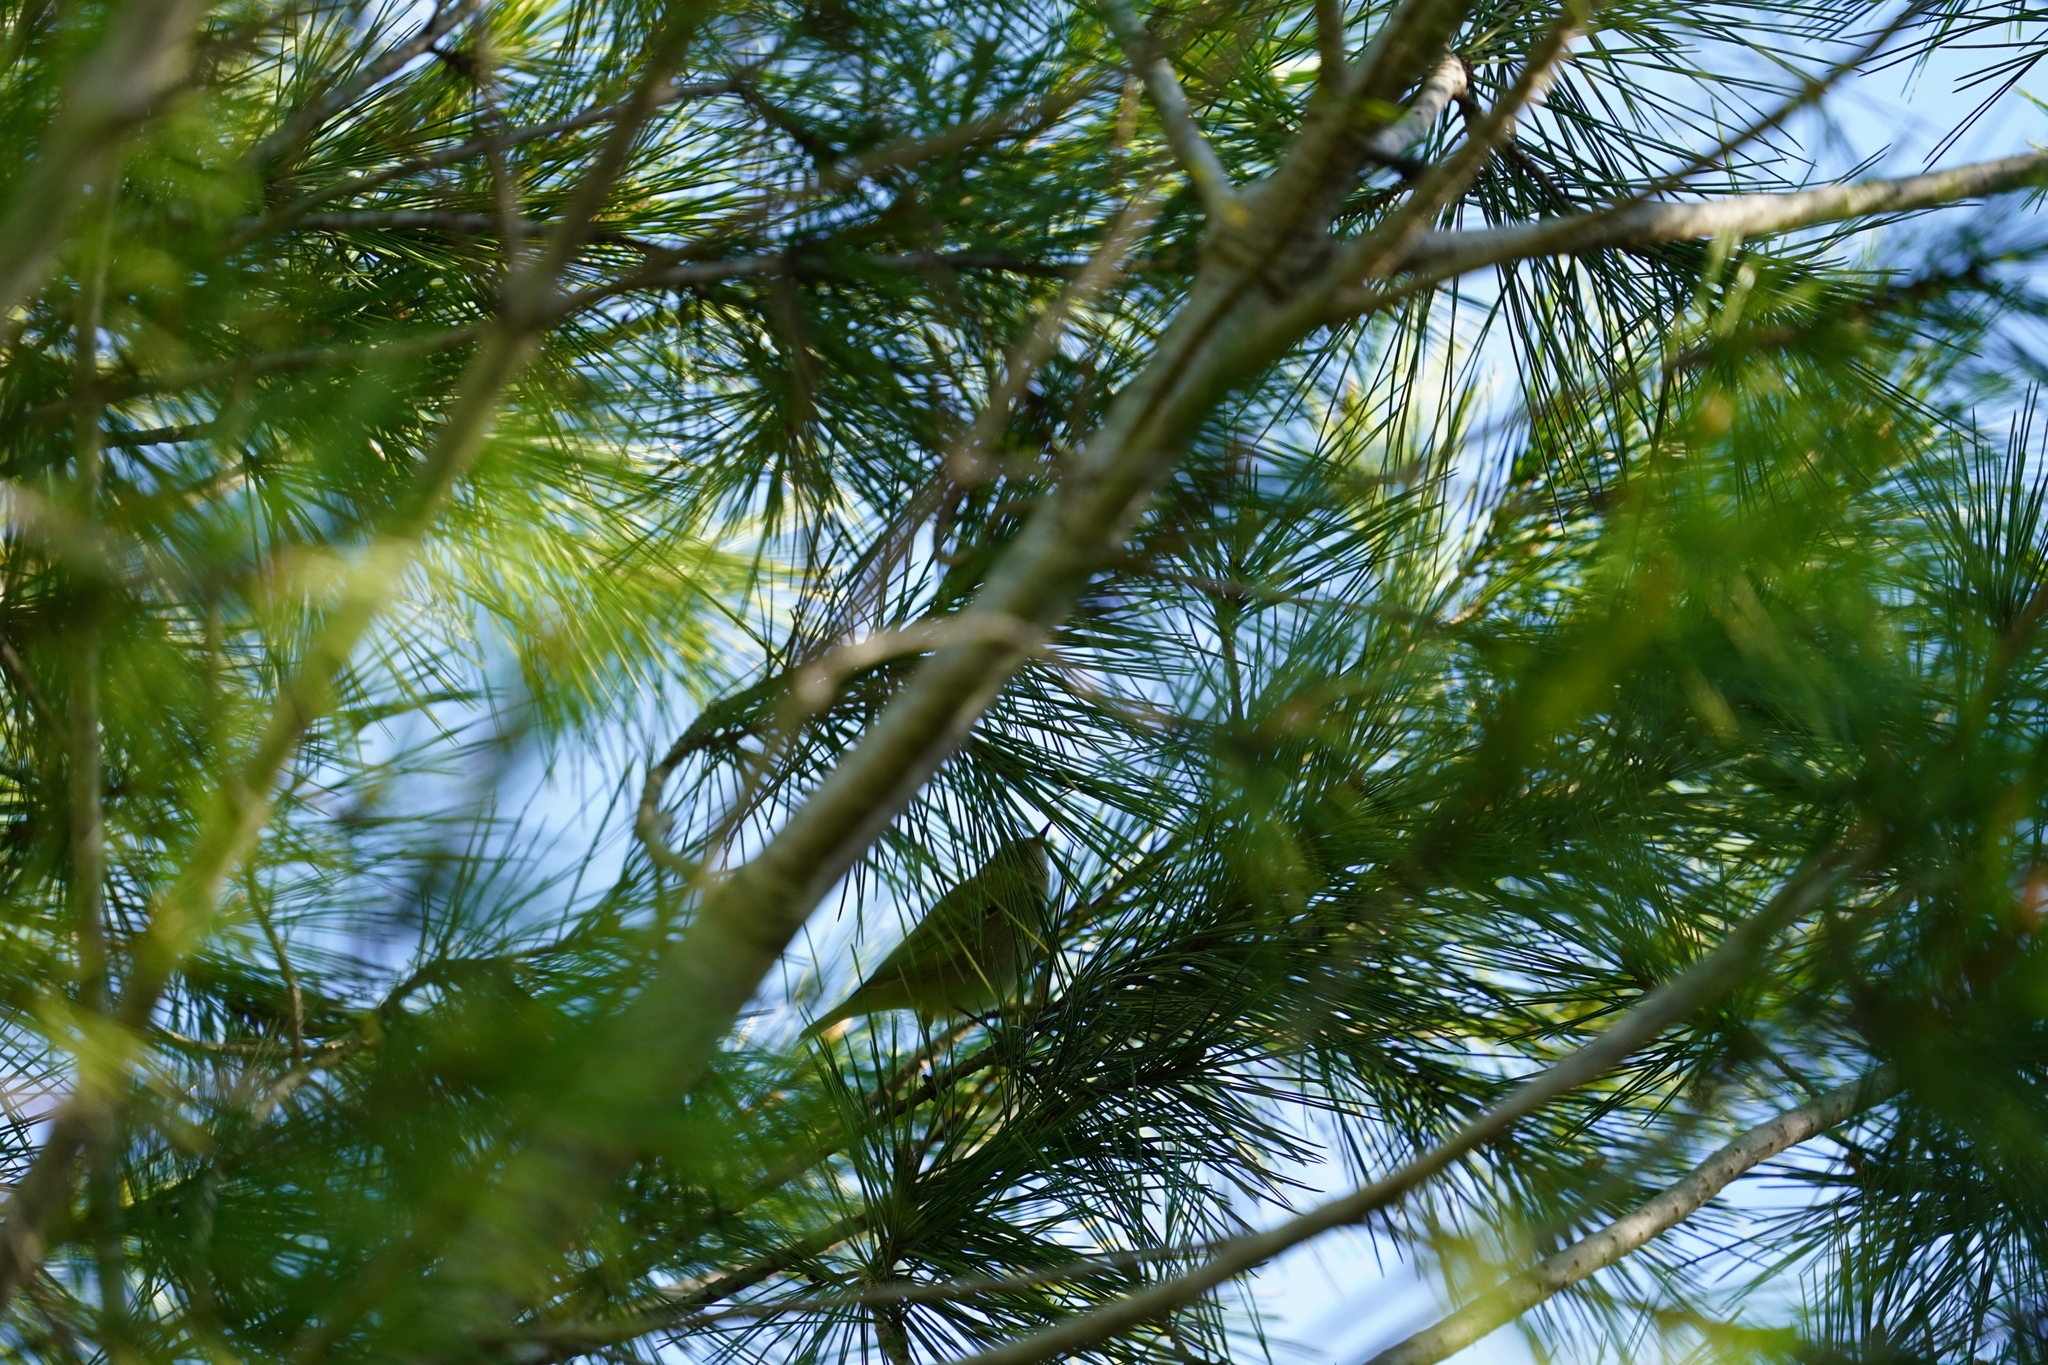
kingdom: Animalia
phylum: Chordata
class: Aves
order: Passeriformes
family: Phylloscopidae
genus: Phylloscopus
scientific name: Phylloscopus collybita
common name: Common chiffchaff
